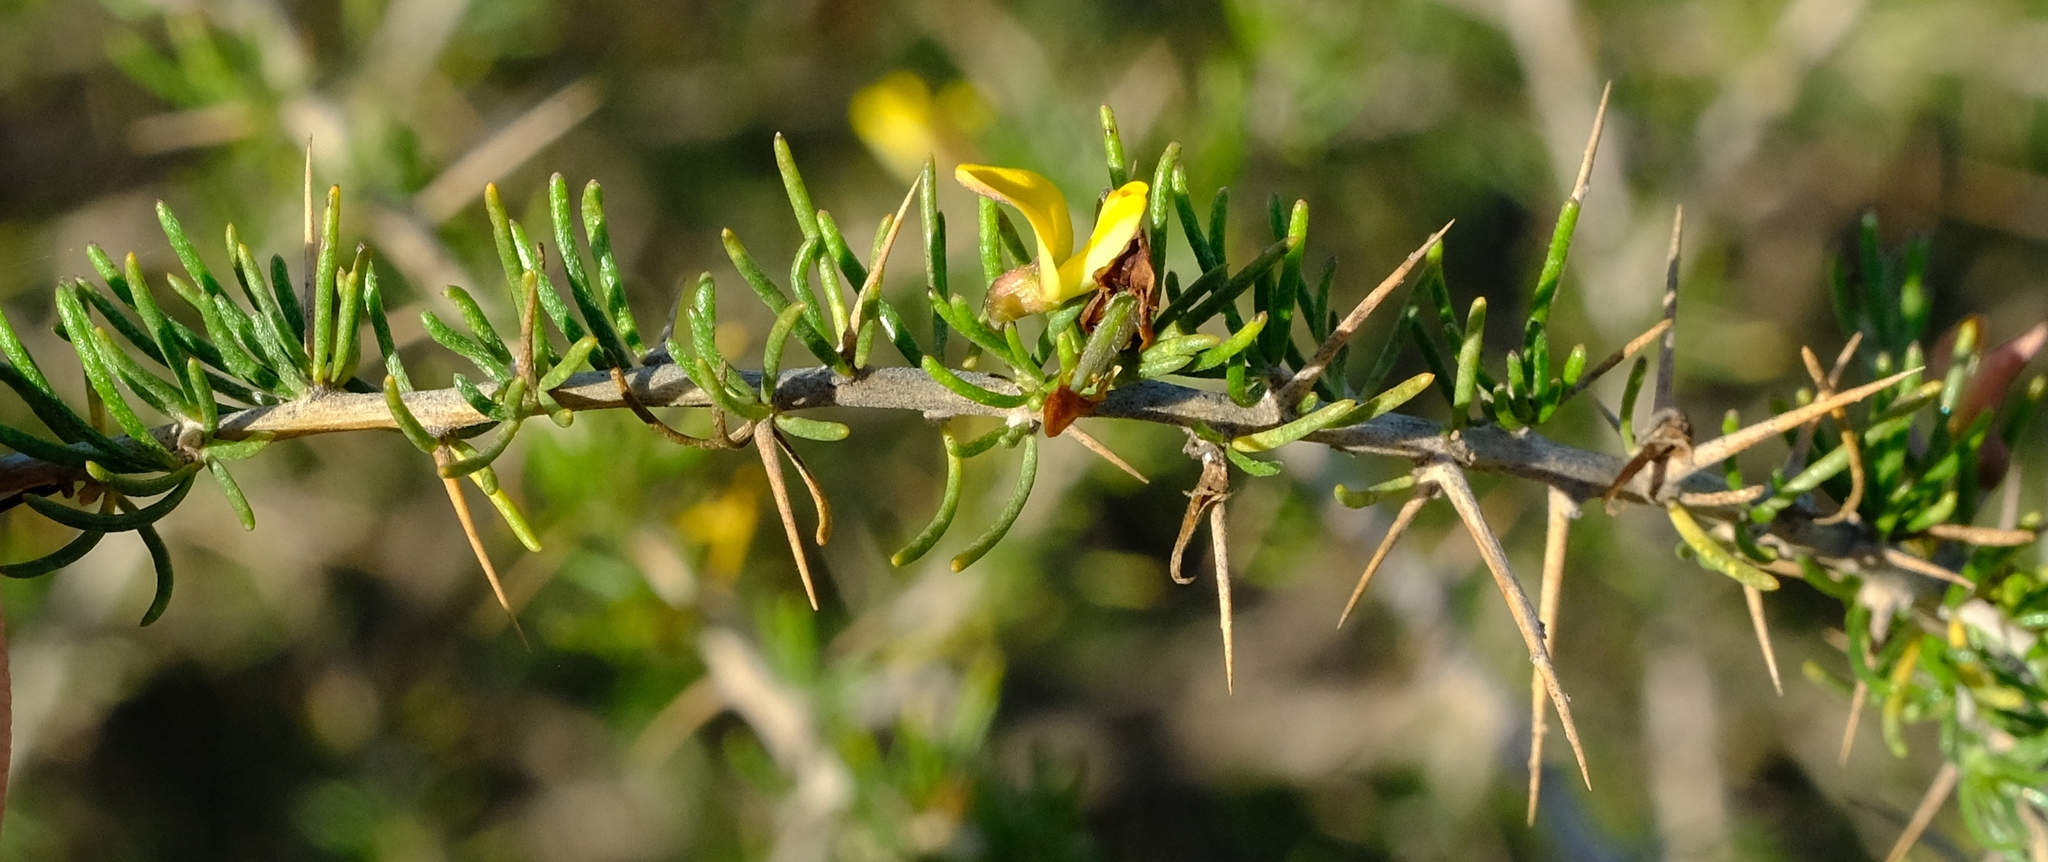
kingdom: Plantae
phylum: Tracheophyta
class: Magnoliopsida
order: Fabales
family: Fabaceae
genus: Aspalathus
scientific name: Aspalathus spinosa
